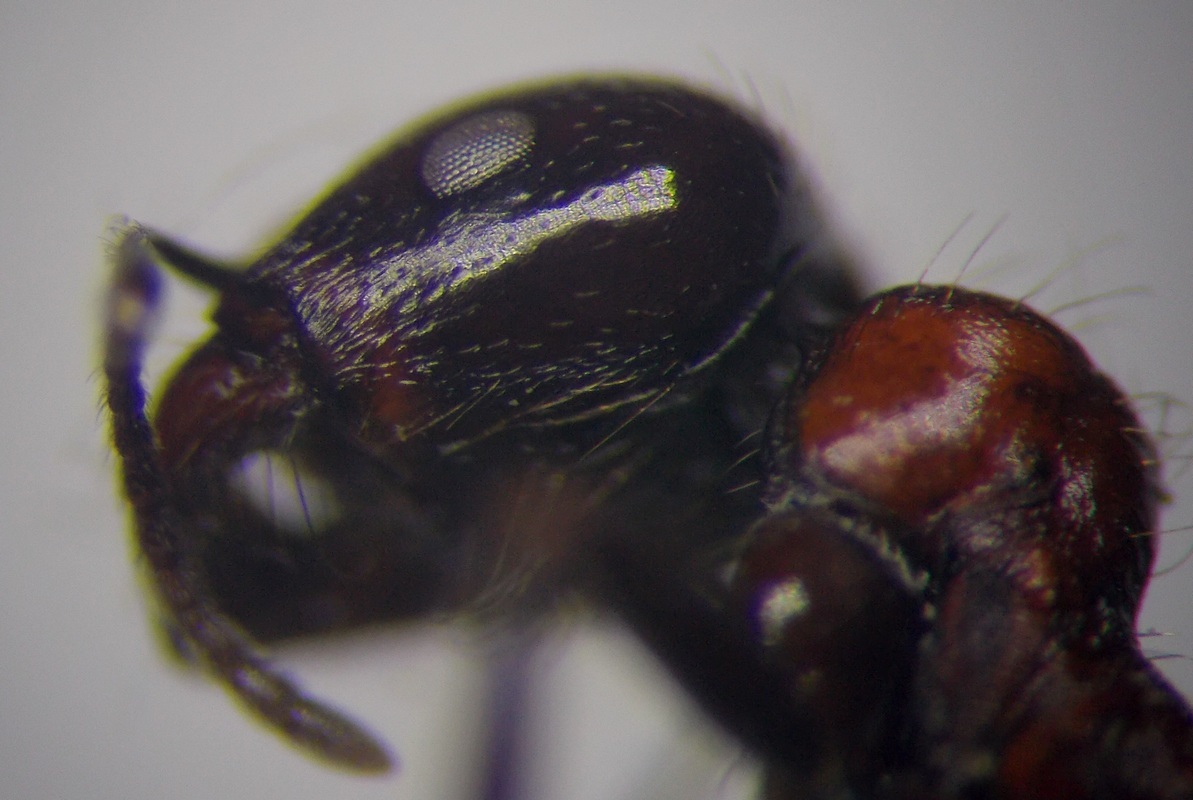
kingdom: Animalia
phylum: Arthropoda
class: Insecta
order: Hymenoptera
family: Formicidae
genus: Messor
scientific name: Messor denticulatus
